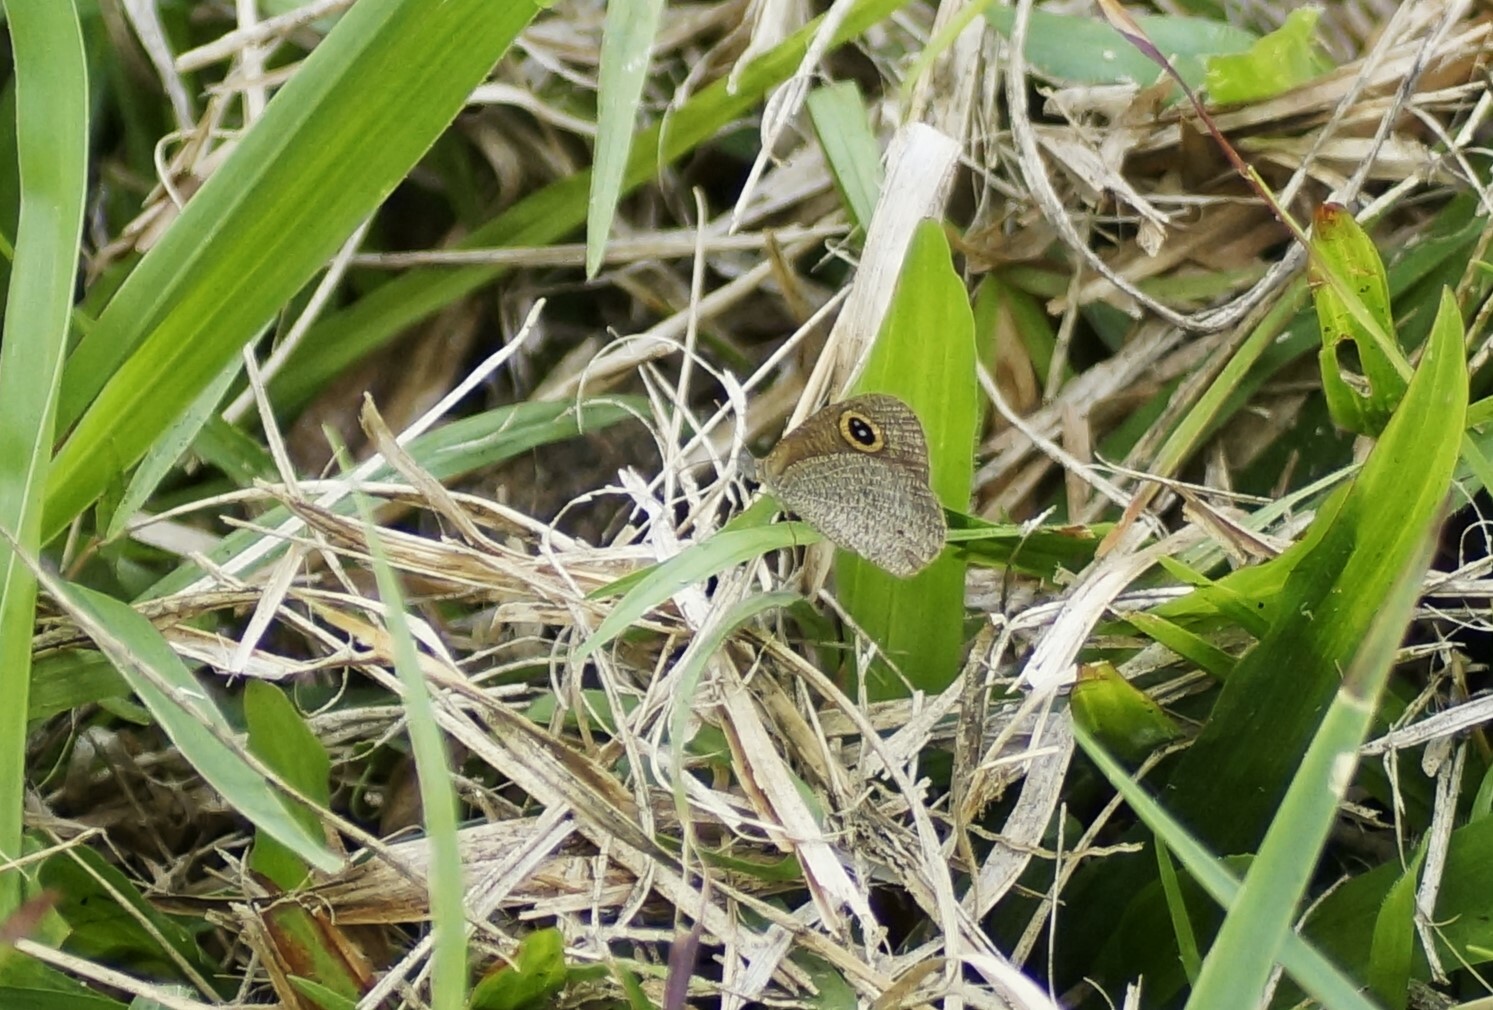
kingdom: Animalia
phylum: Arthropoda
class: Insecta
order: Lepidoptera
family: Nymphalidae
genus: Ypthima
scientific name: Ypthima arctous
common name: Dusky knight
